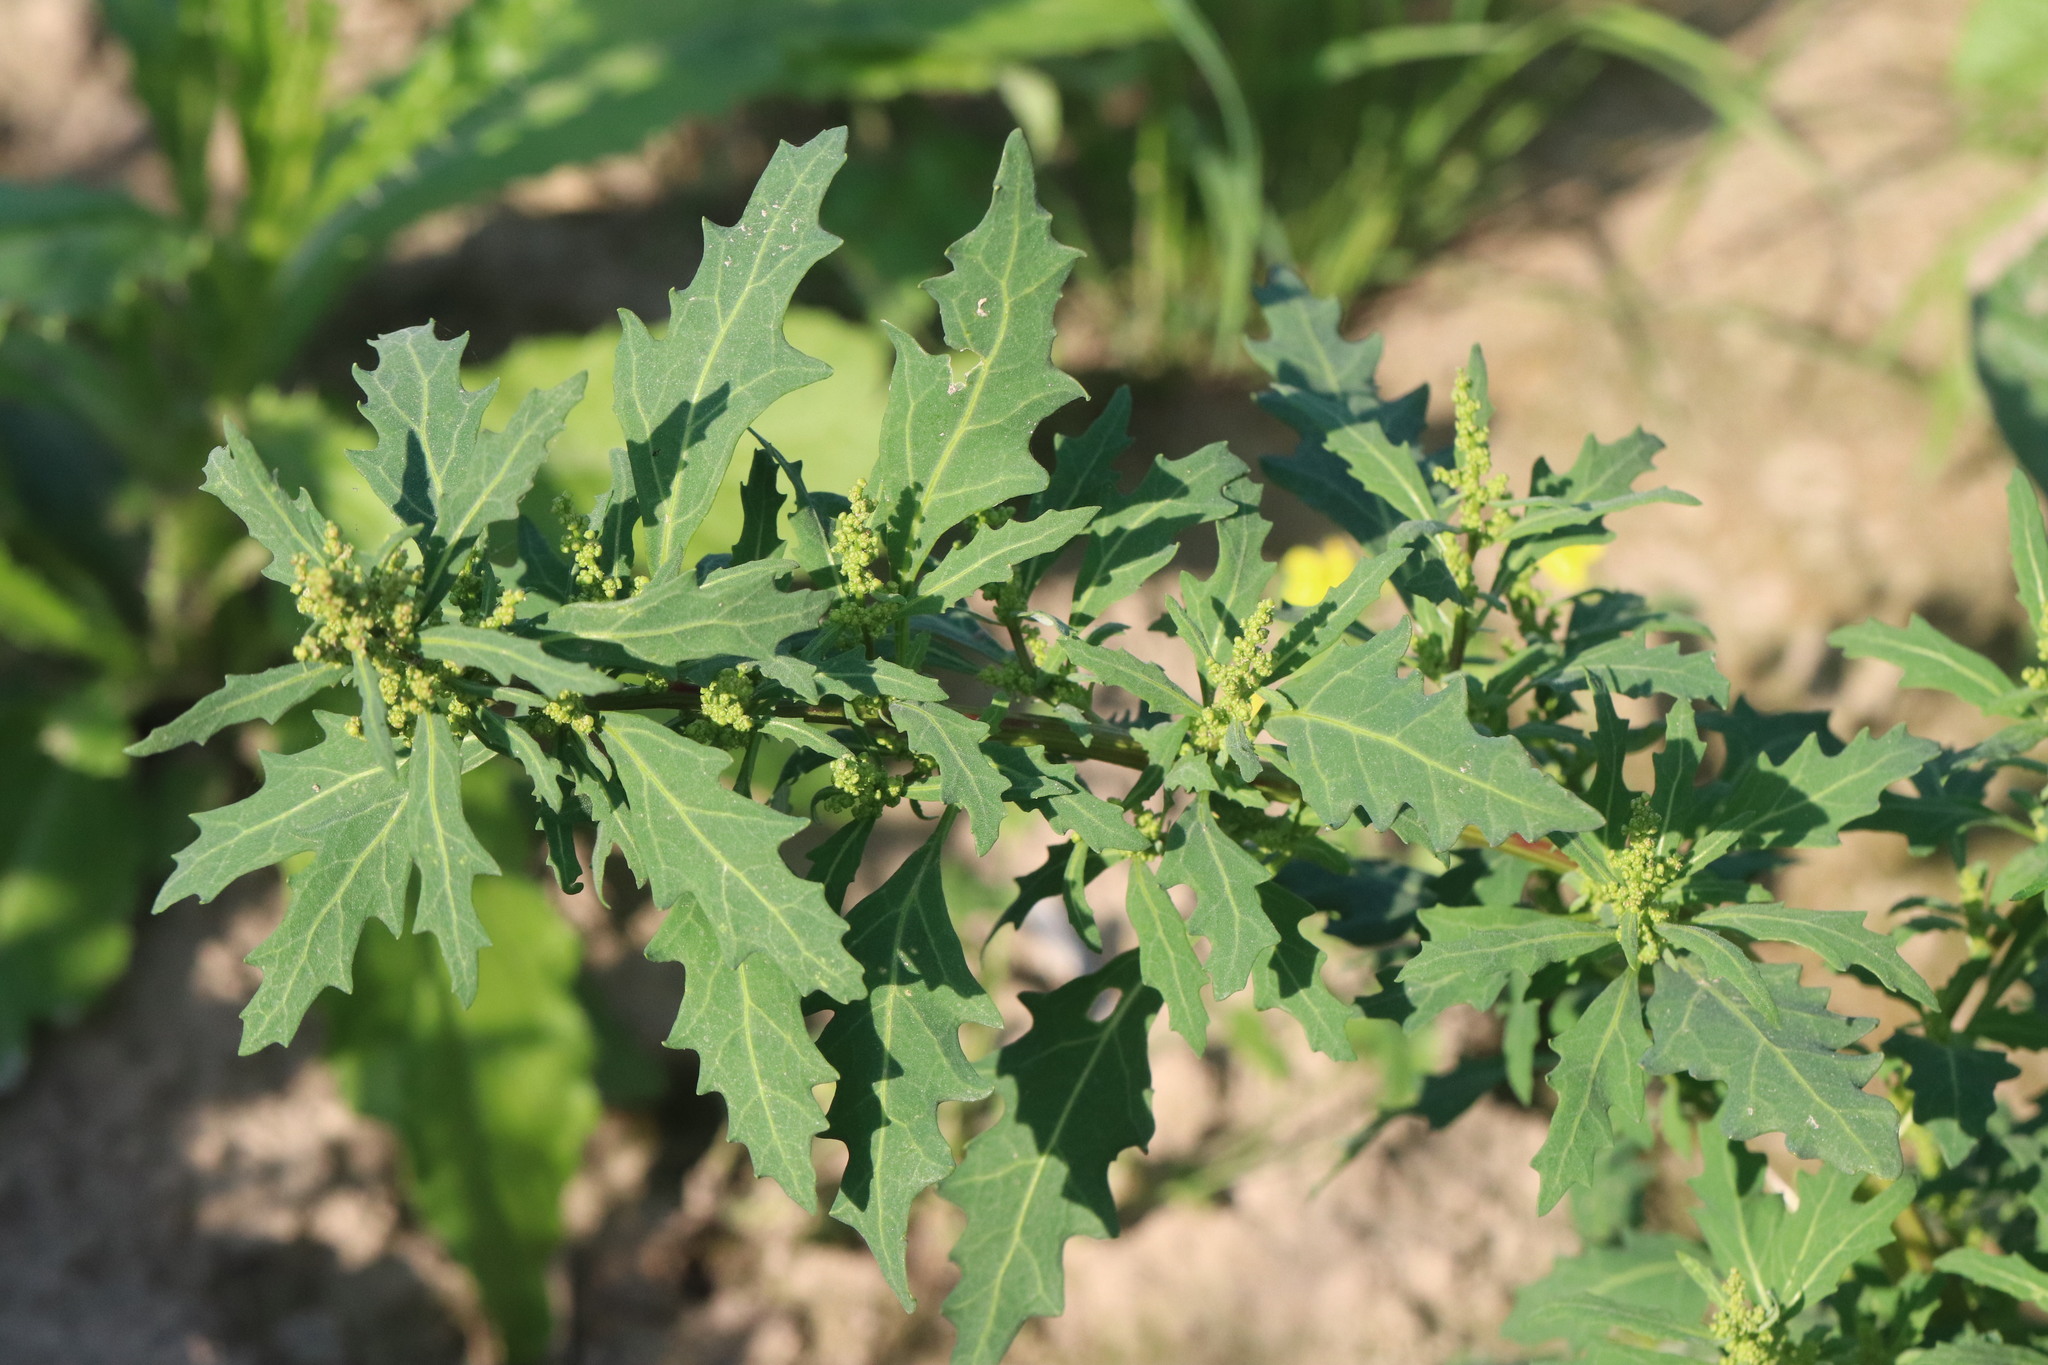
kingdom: Plantae
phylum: Tracheophyta
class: Magnoliopsida
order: Caryophyllales
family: Amaranthaceae
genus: Oxybasis
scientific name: Oxybasis glauca
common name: Glaucous goosefoot
